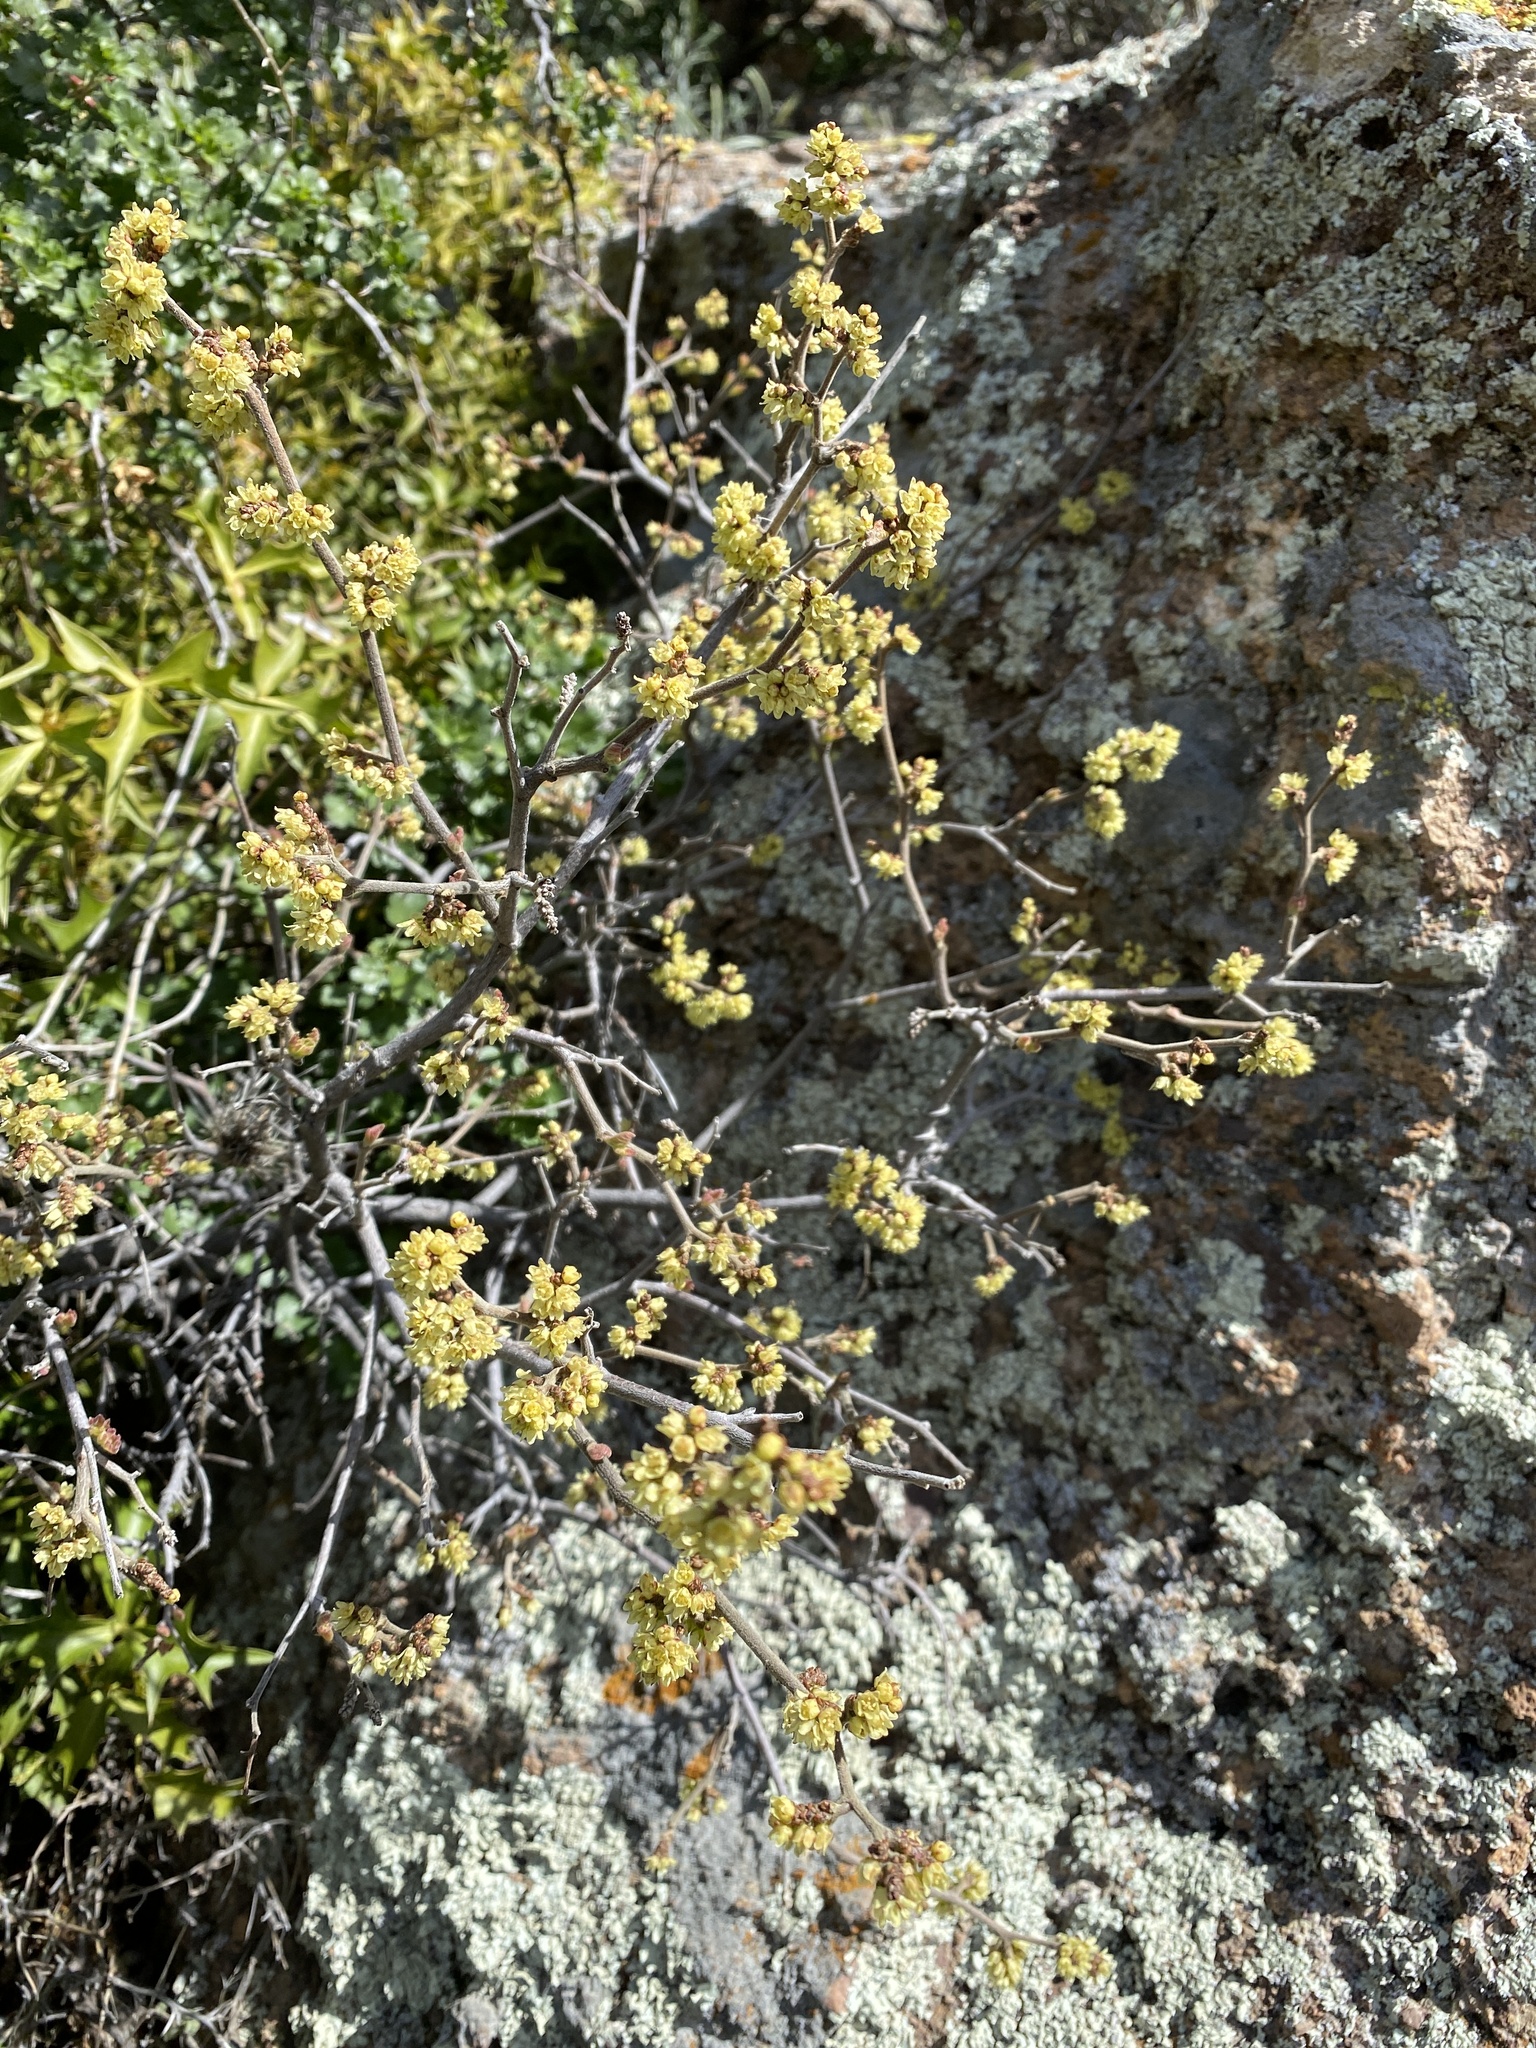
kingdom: Plantae
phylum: Tracheophyta
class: Magnoliopsida
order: Saxifragales
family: Grossulariaceae
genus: Ribes
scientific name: Ribes quercetorum
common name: Oak gooseberry
